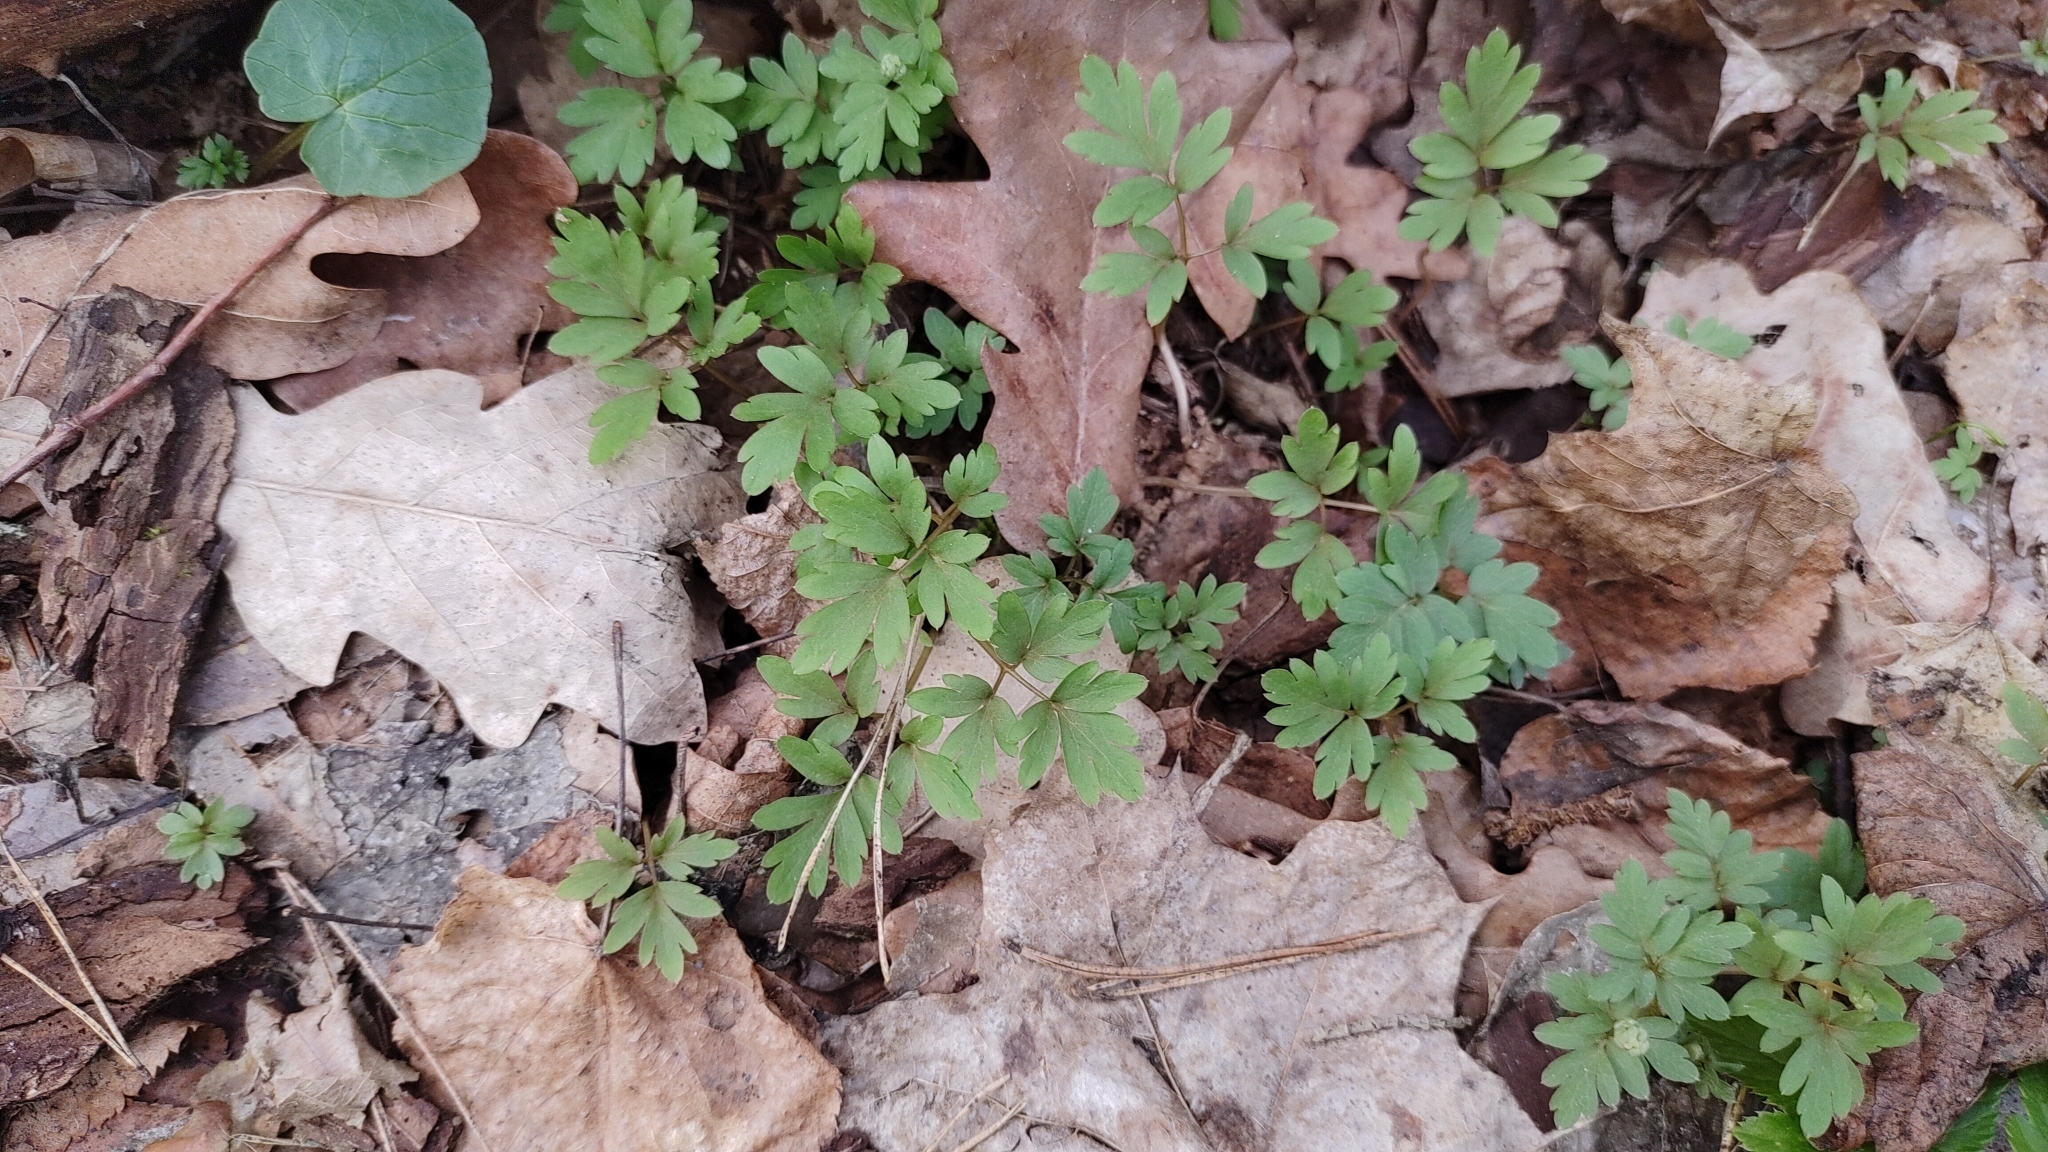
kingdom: Plantae
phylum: Tracheophyta
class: Magnoliopsida
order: Dipsacales
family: Viburnaceae
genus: Adoxa
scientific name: Adoxa moschatellina
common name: Moschatel
